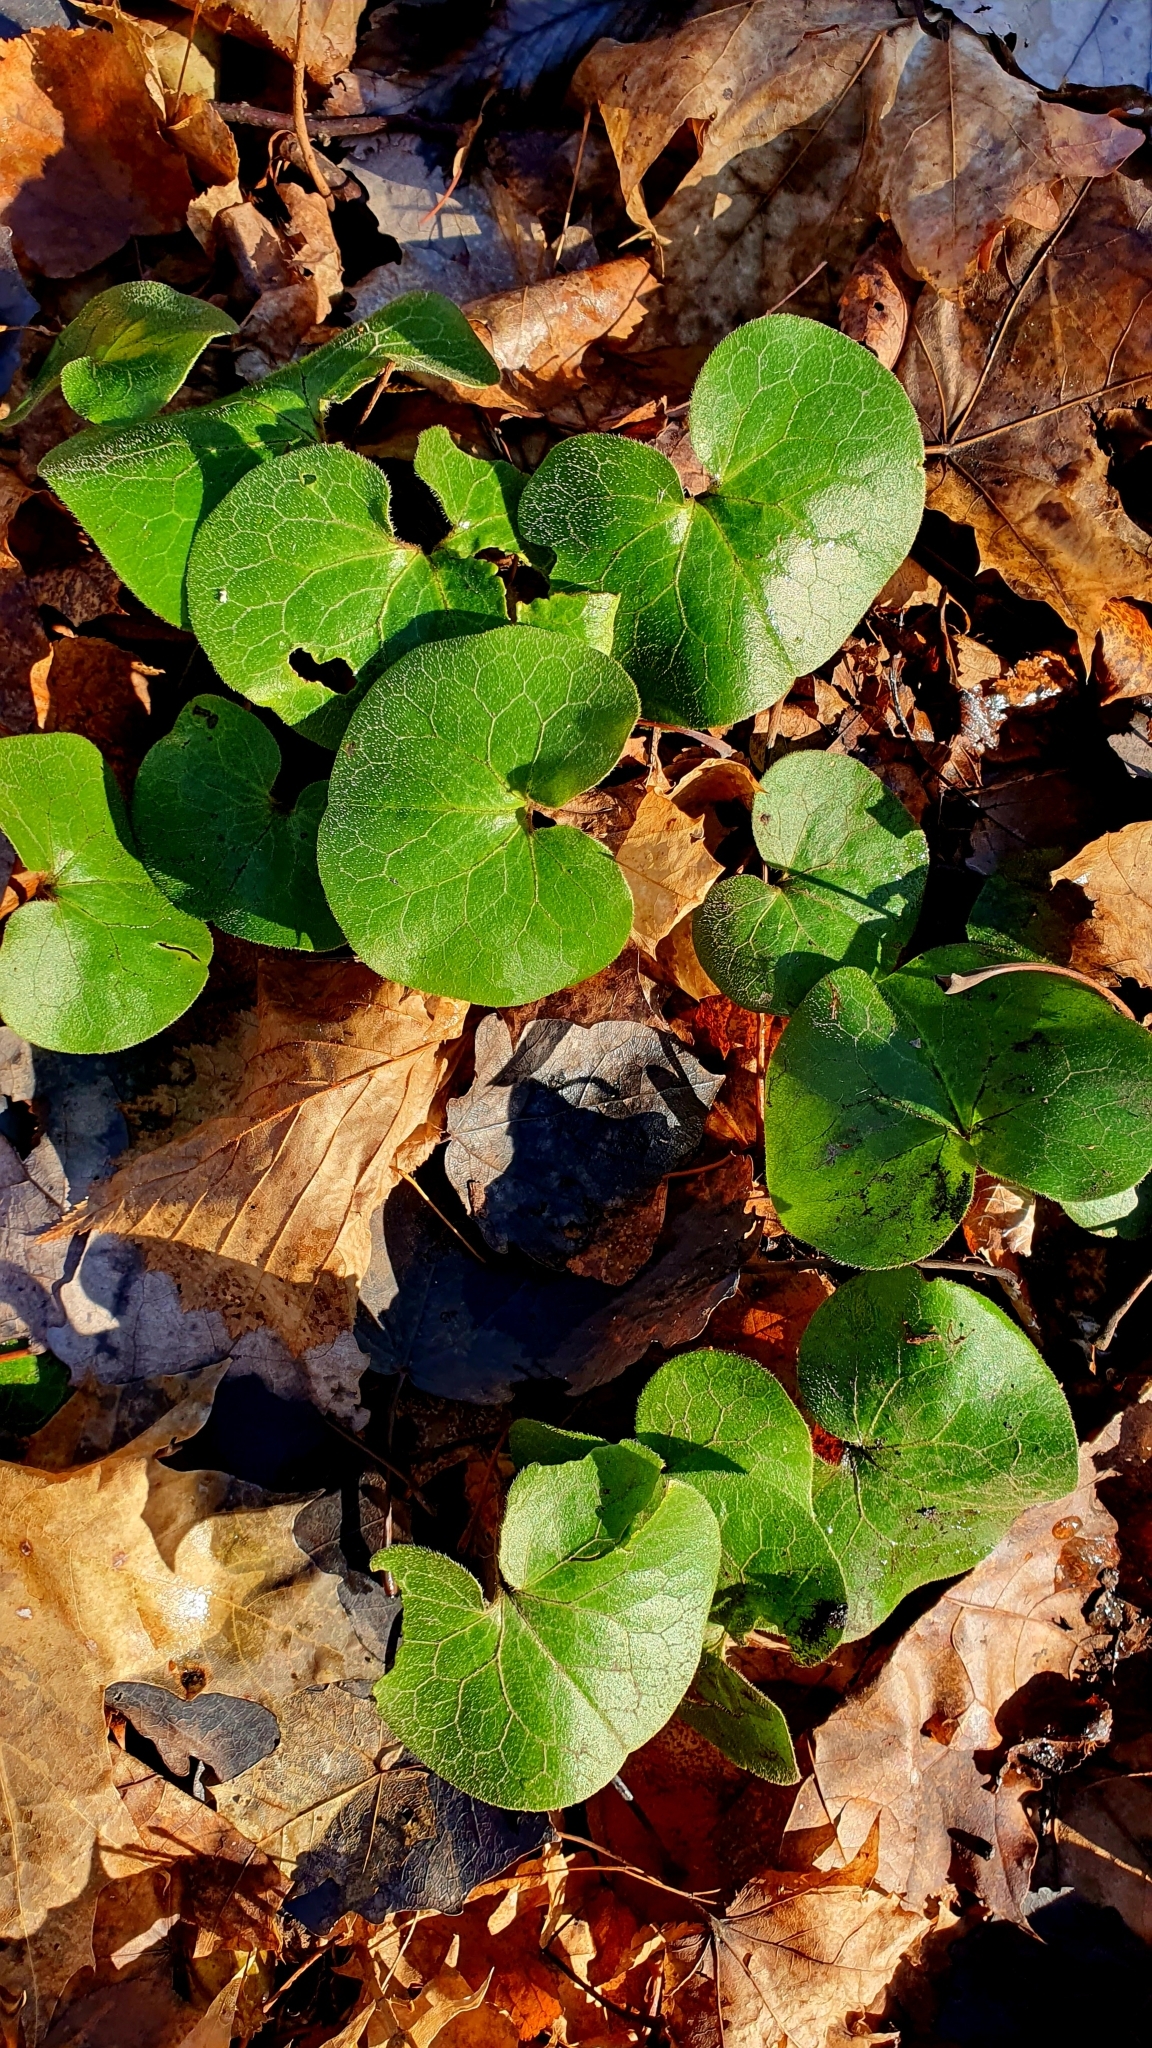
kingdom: Plantae
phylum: Tracheophyta
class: Magnoliopsida
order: Piperales
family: Aristolochiaceae
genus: Asarum
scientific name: Asarum europaeum
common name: Asarabacca
